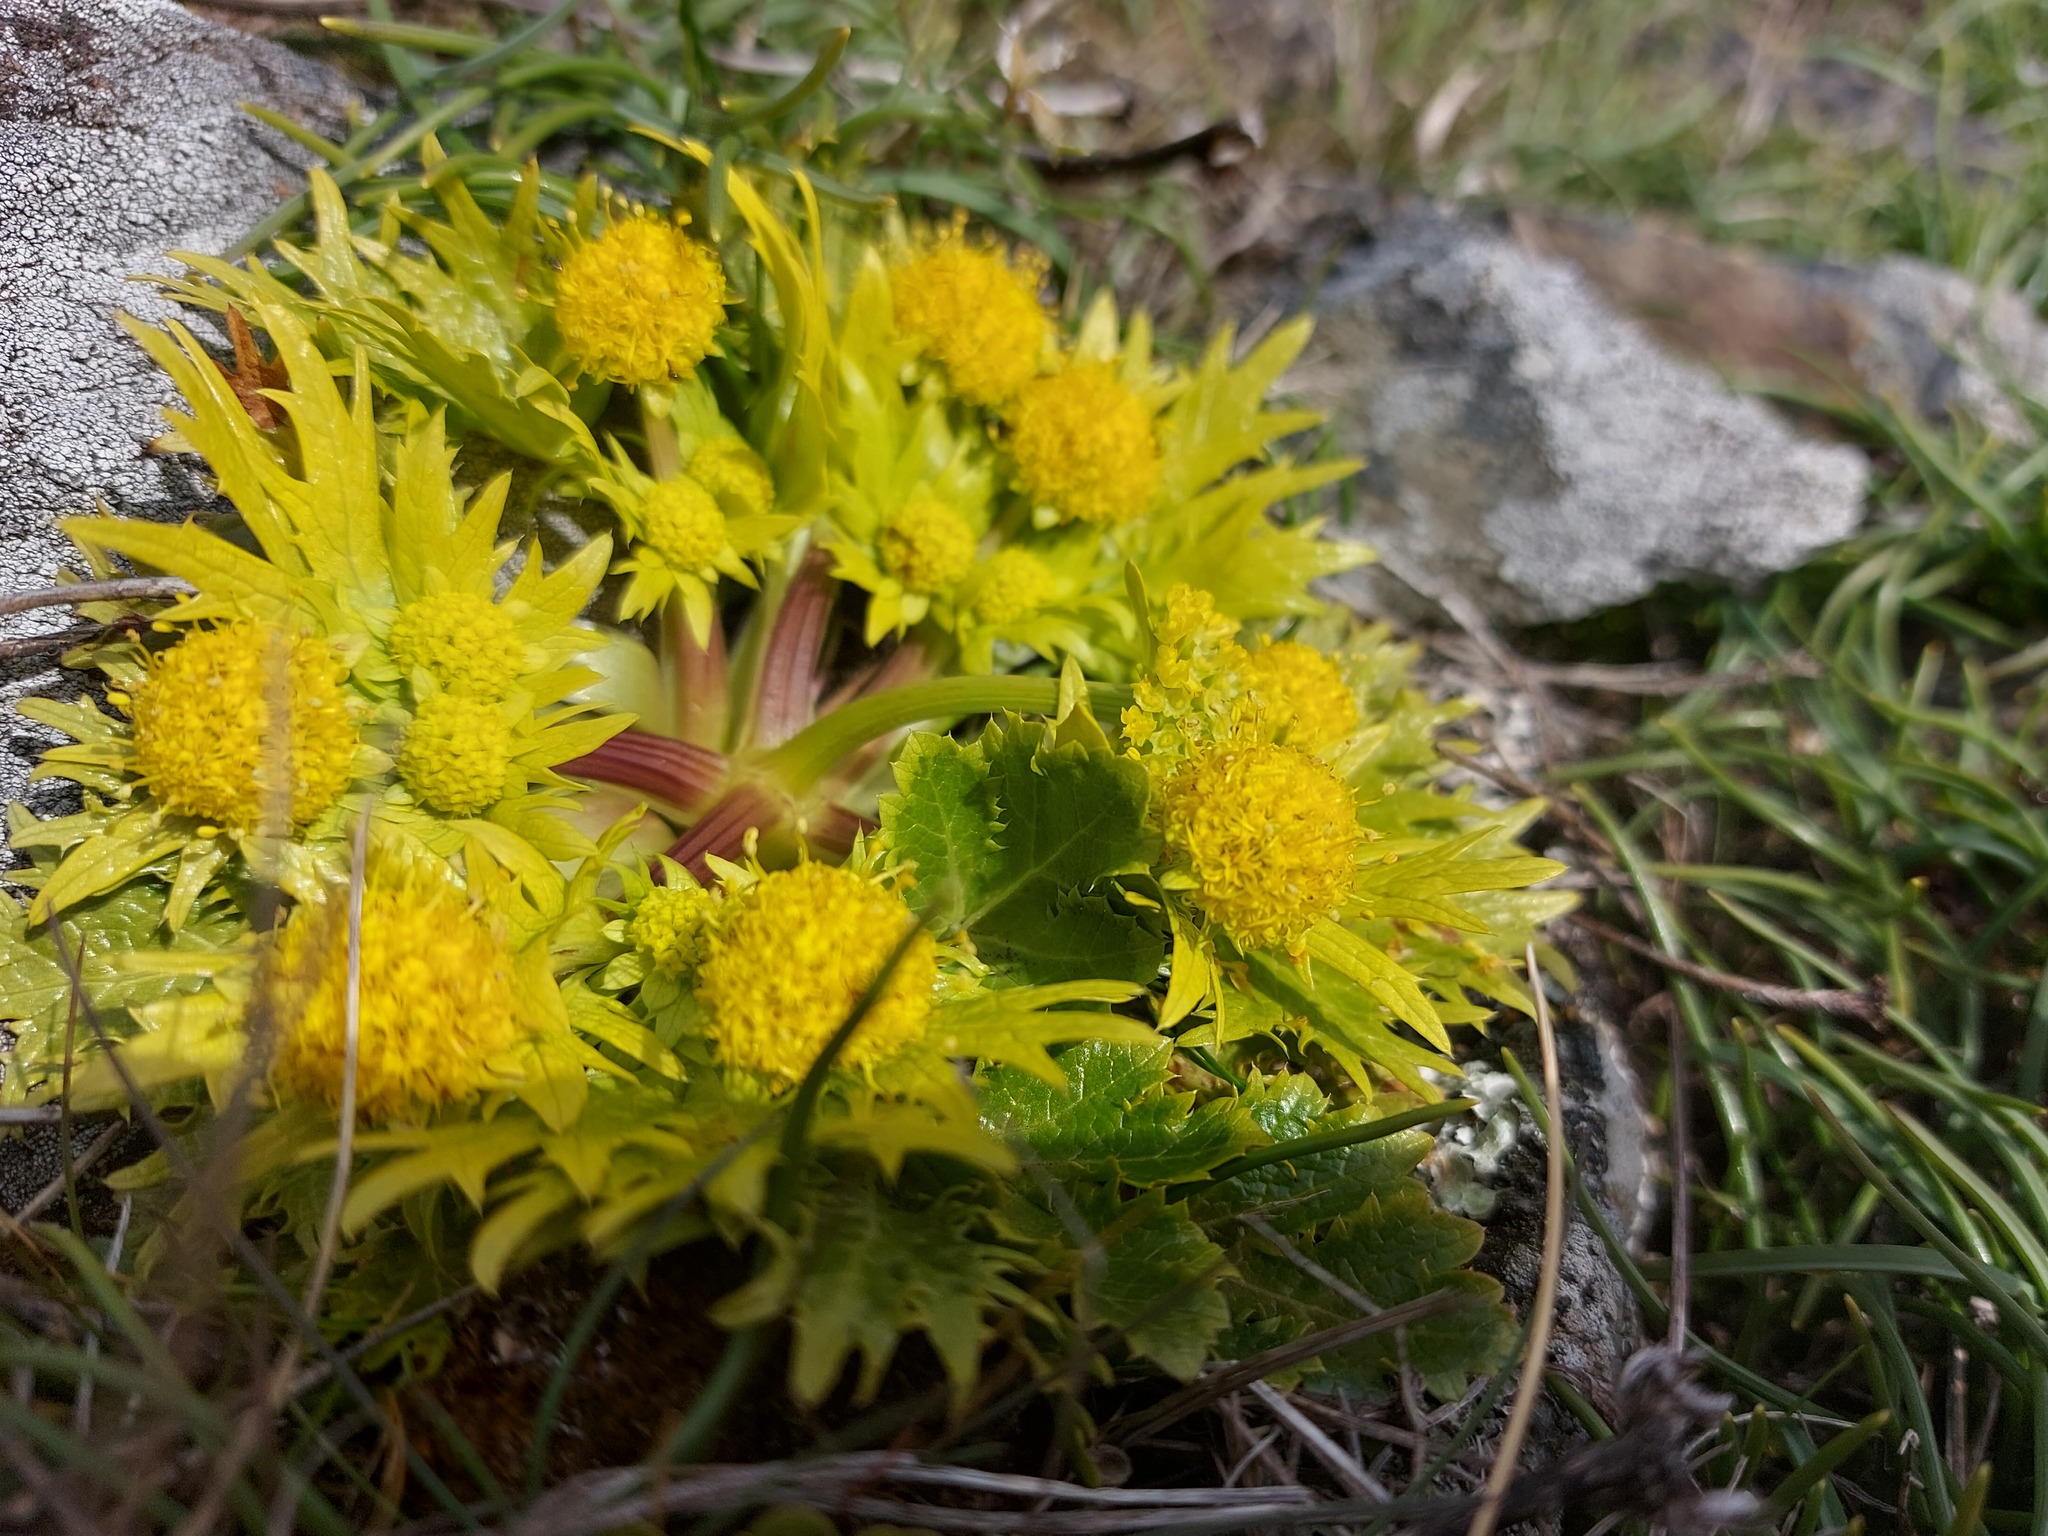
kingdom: Plantae
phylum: Tracheophyta
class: Magnoliopsida
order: Apiales
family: Apiaceae
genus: Sanicula
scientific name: Sanicula arctopoides
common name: Footsteps-of-spring
